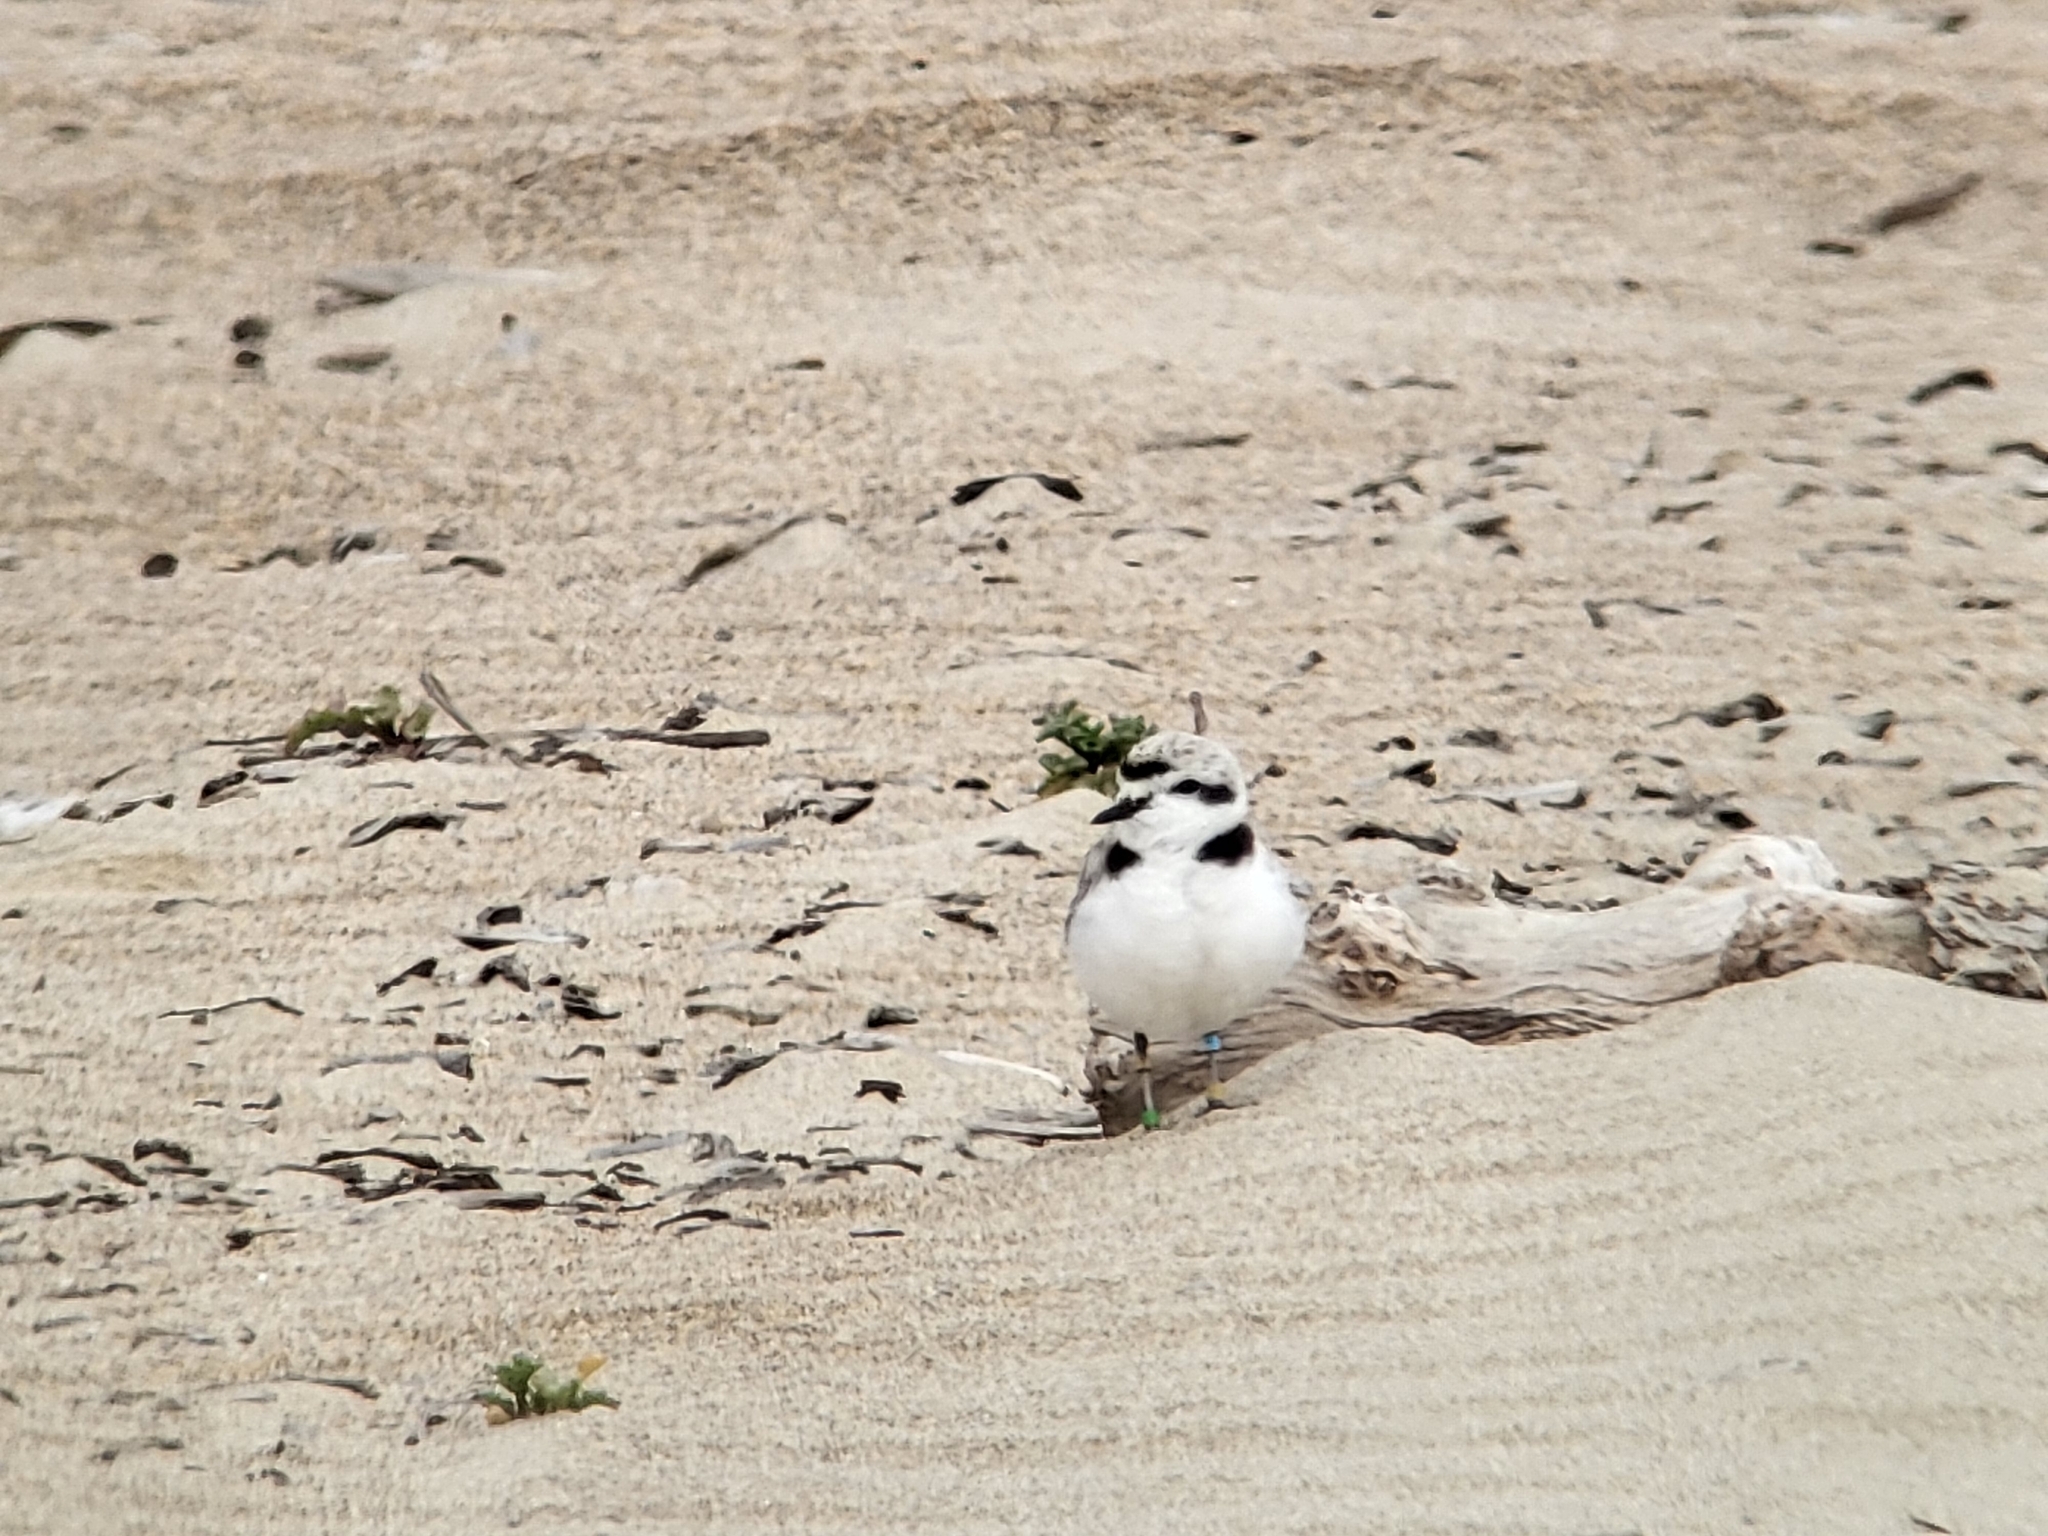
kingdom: Animalia
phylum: Chordata
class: Aves
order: Charadriiformes
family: Charadriidae
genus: Anarhynchus
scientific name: Anarhynchus
